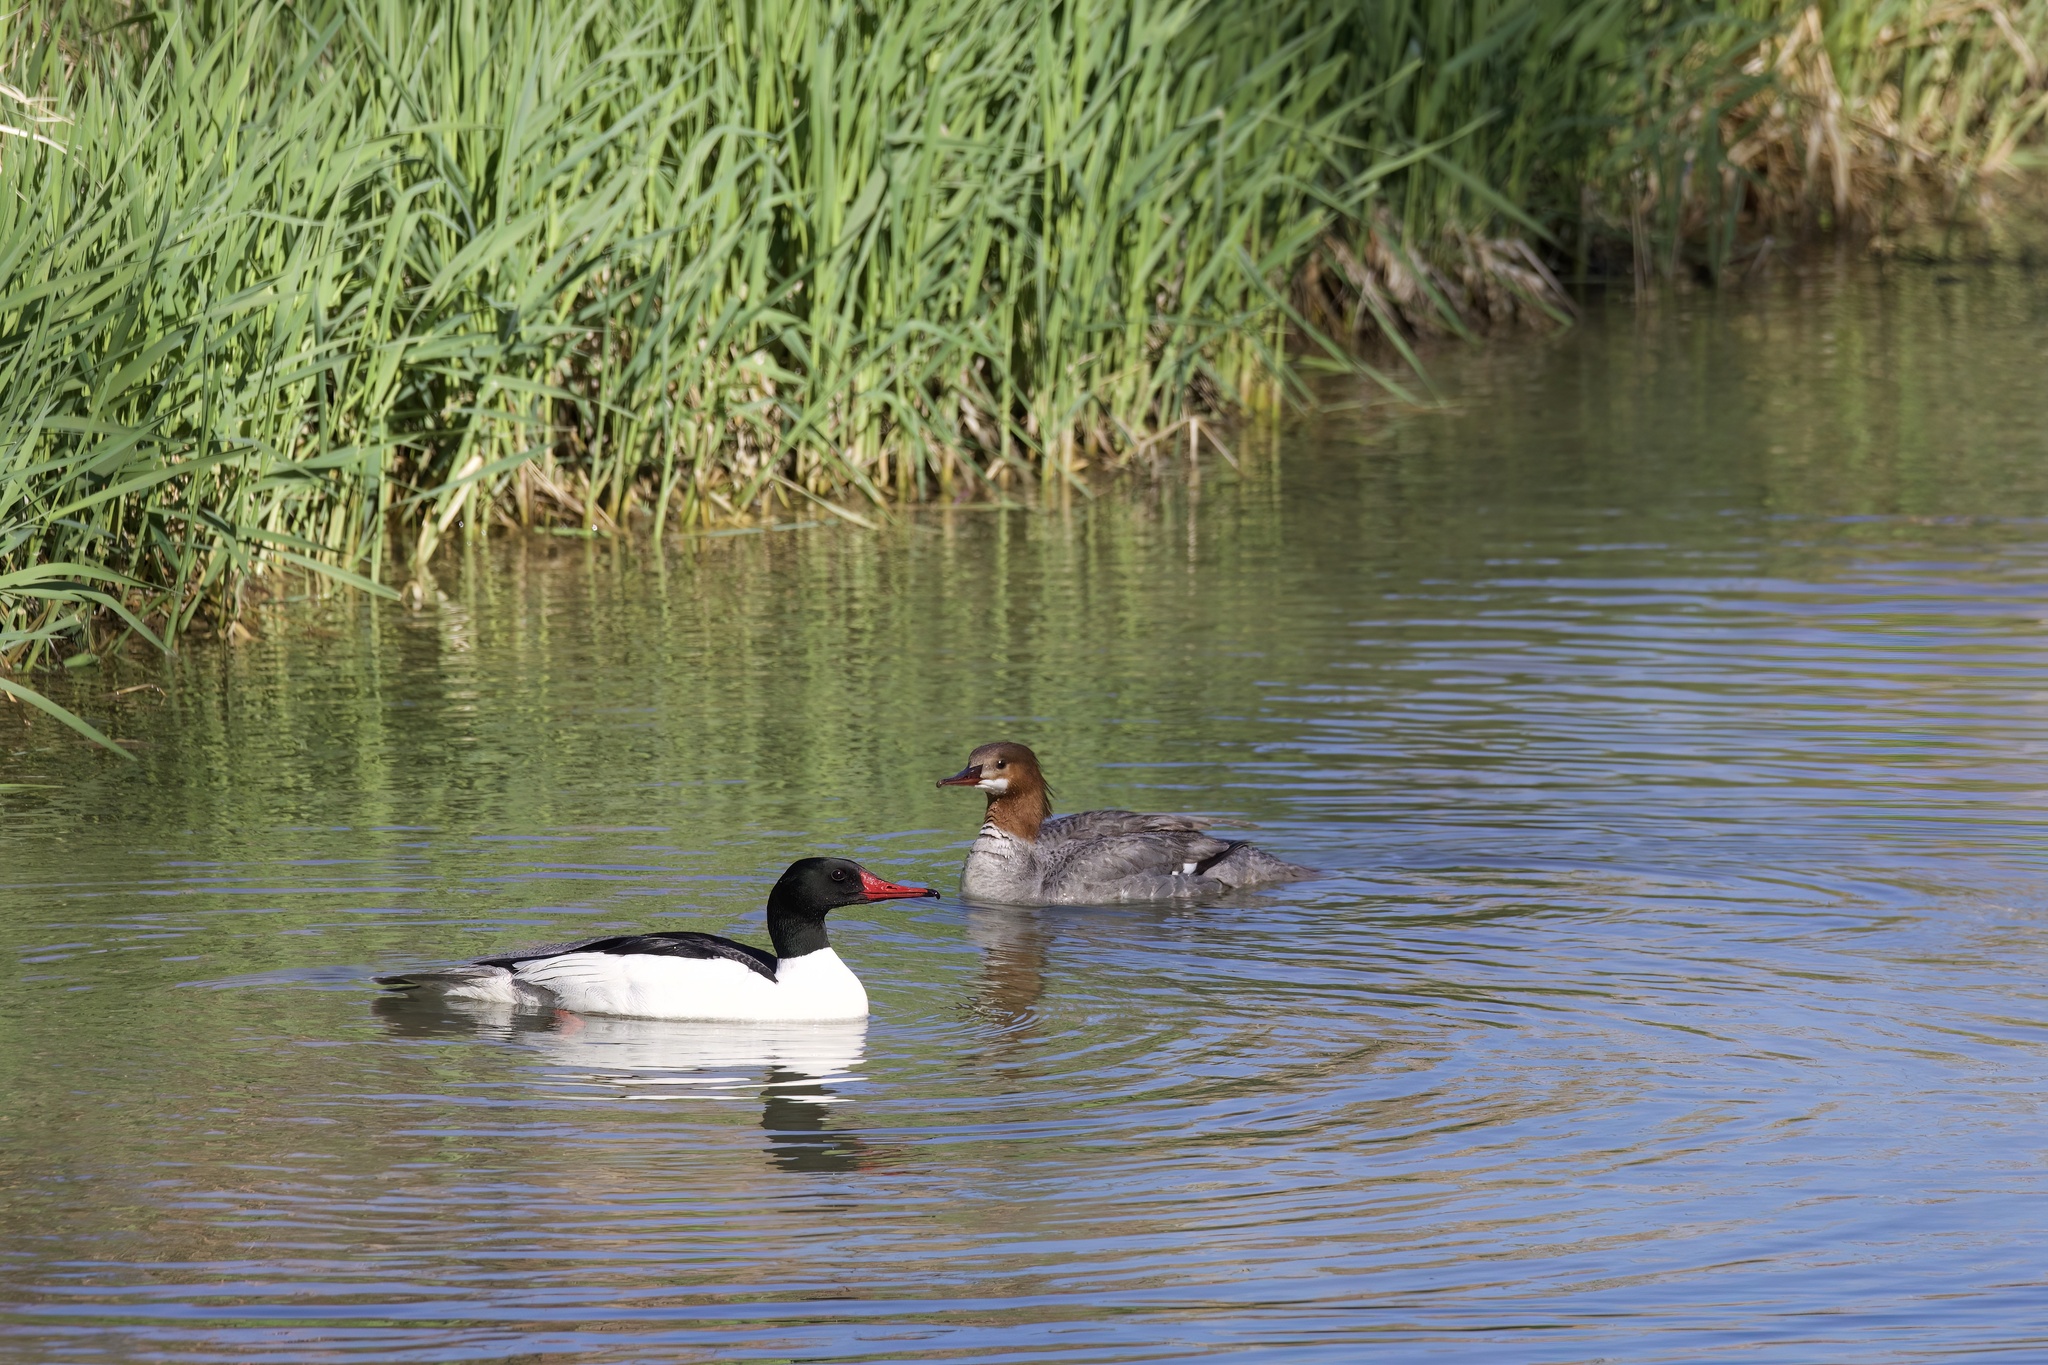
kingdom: Animalia
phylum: Chordata
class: Aves
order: Anseriformes
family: Anatidae
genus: Mergus
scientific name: Mergus merganser
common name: Common merganser
